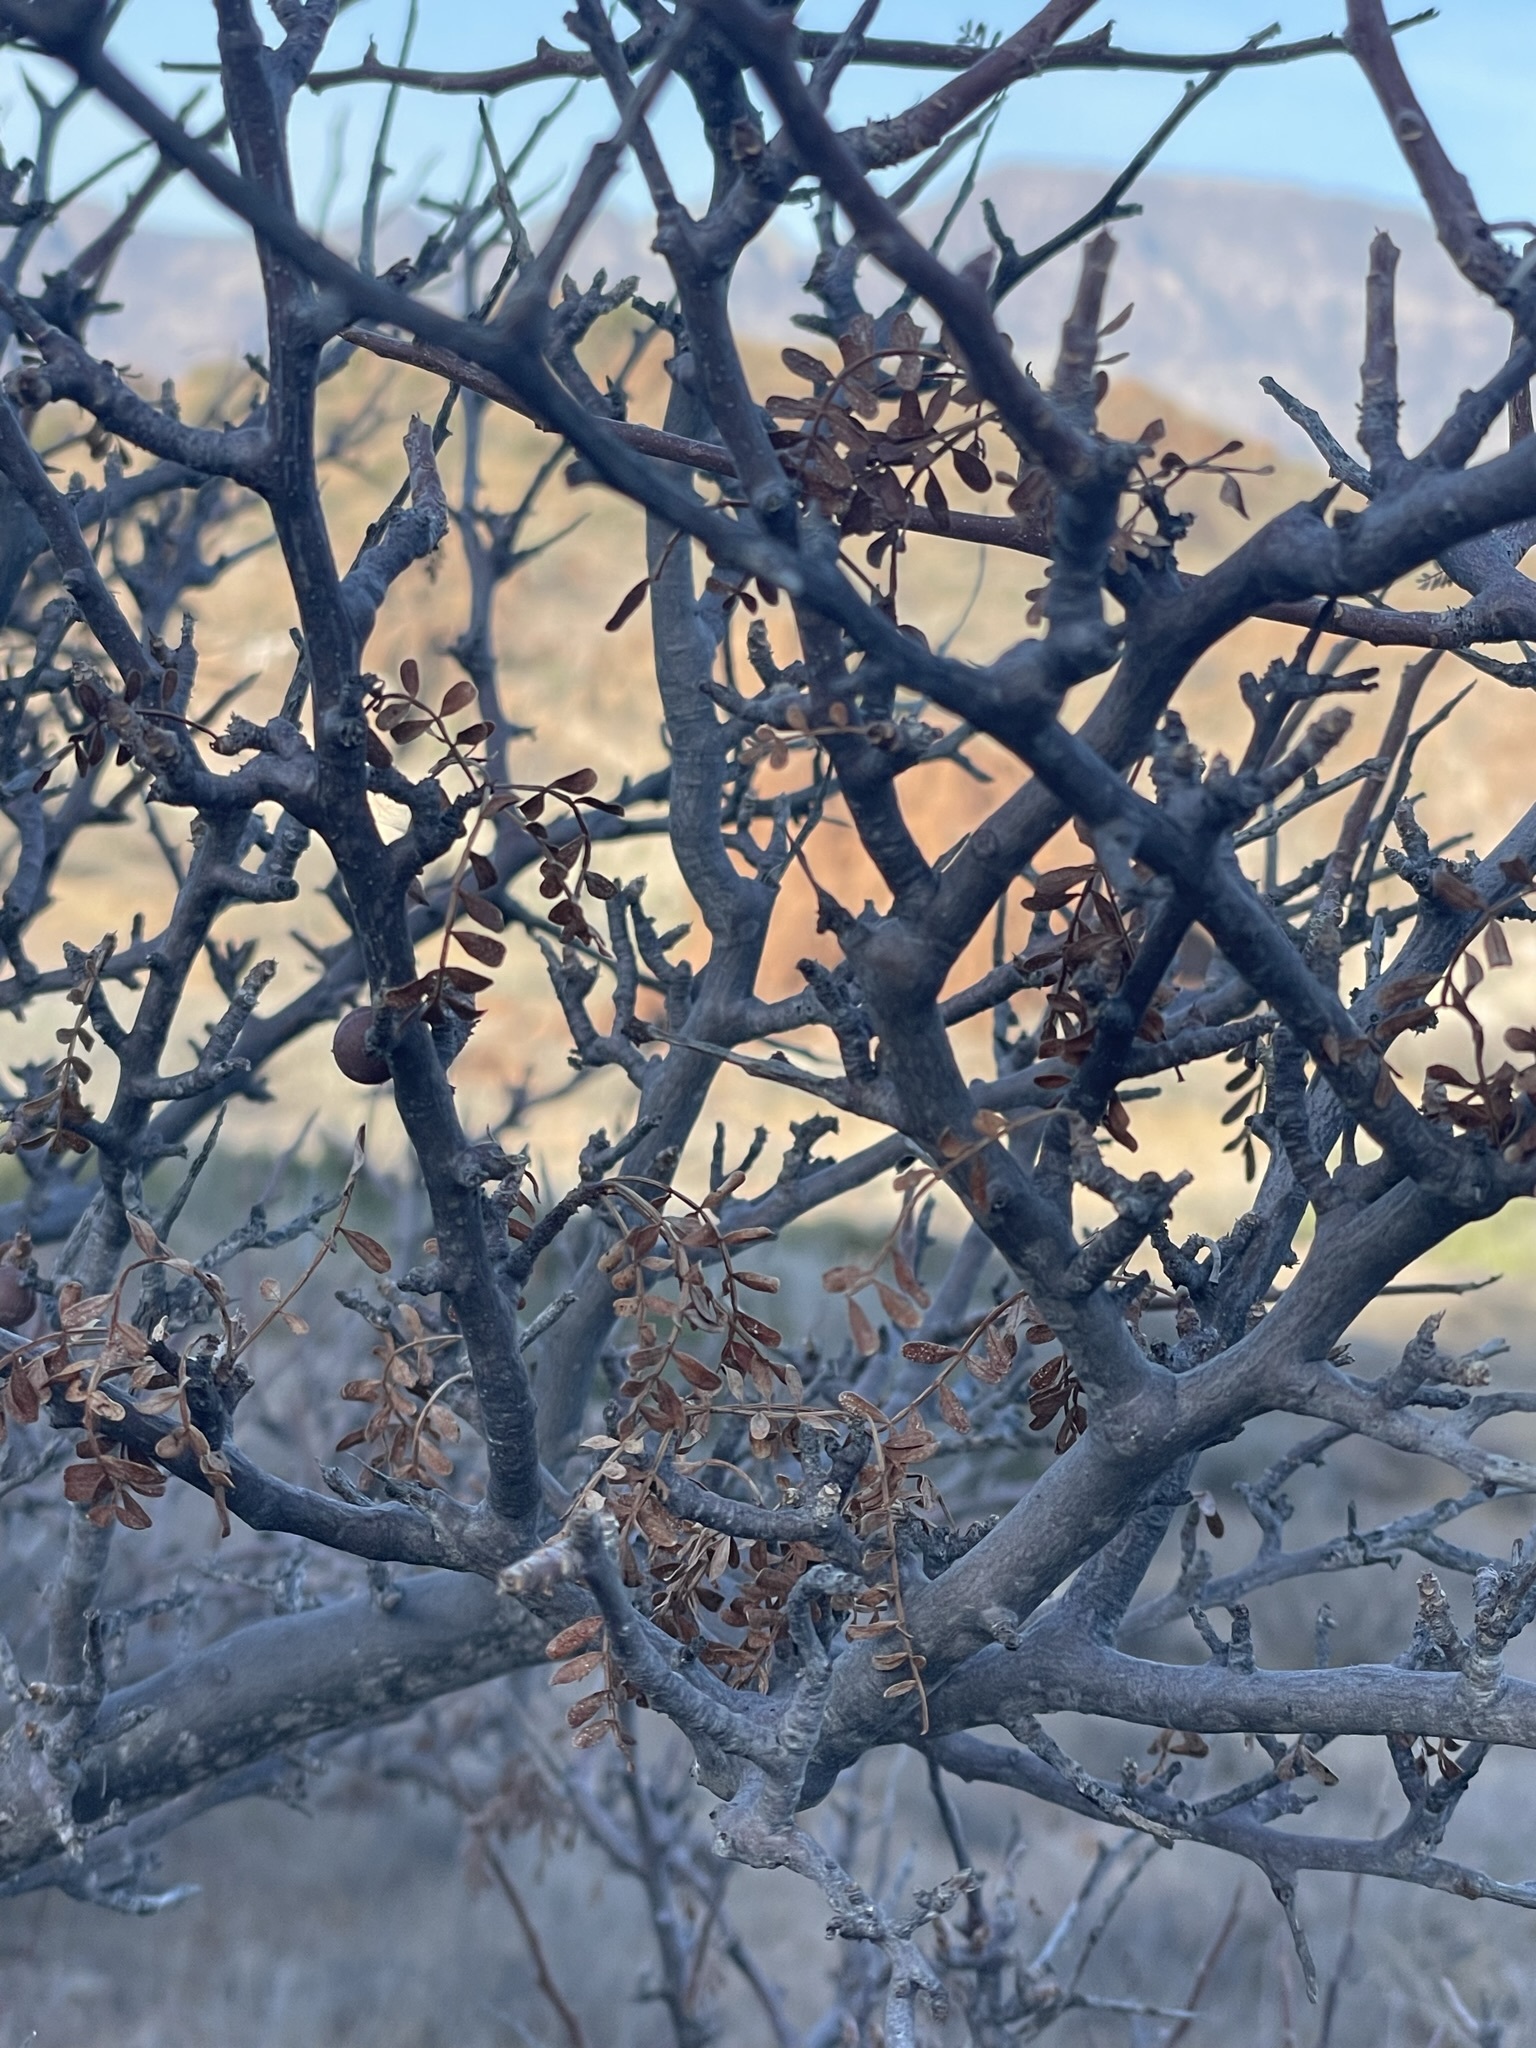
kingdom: Plantae
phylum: Tracheophyta
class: Magnoliopsida
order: Sapindales
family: Burseraceae
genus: Bursera
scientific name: Bursera microphylla
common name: Elephant tree
